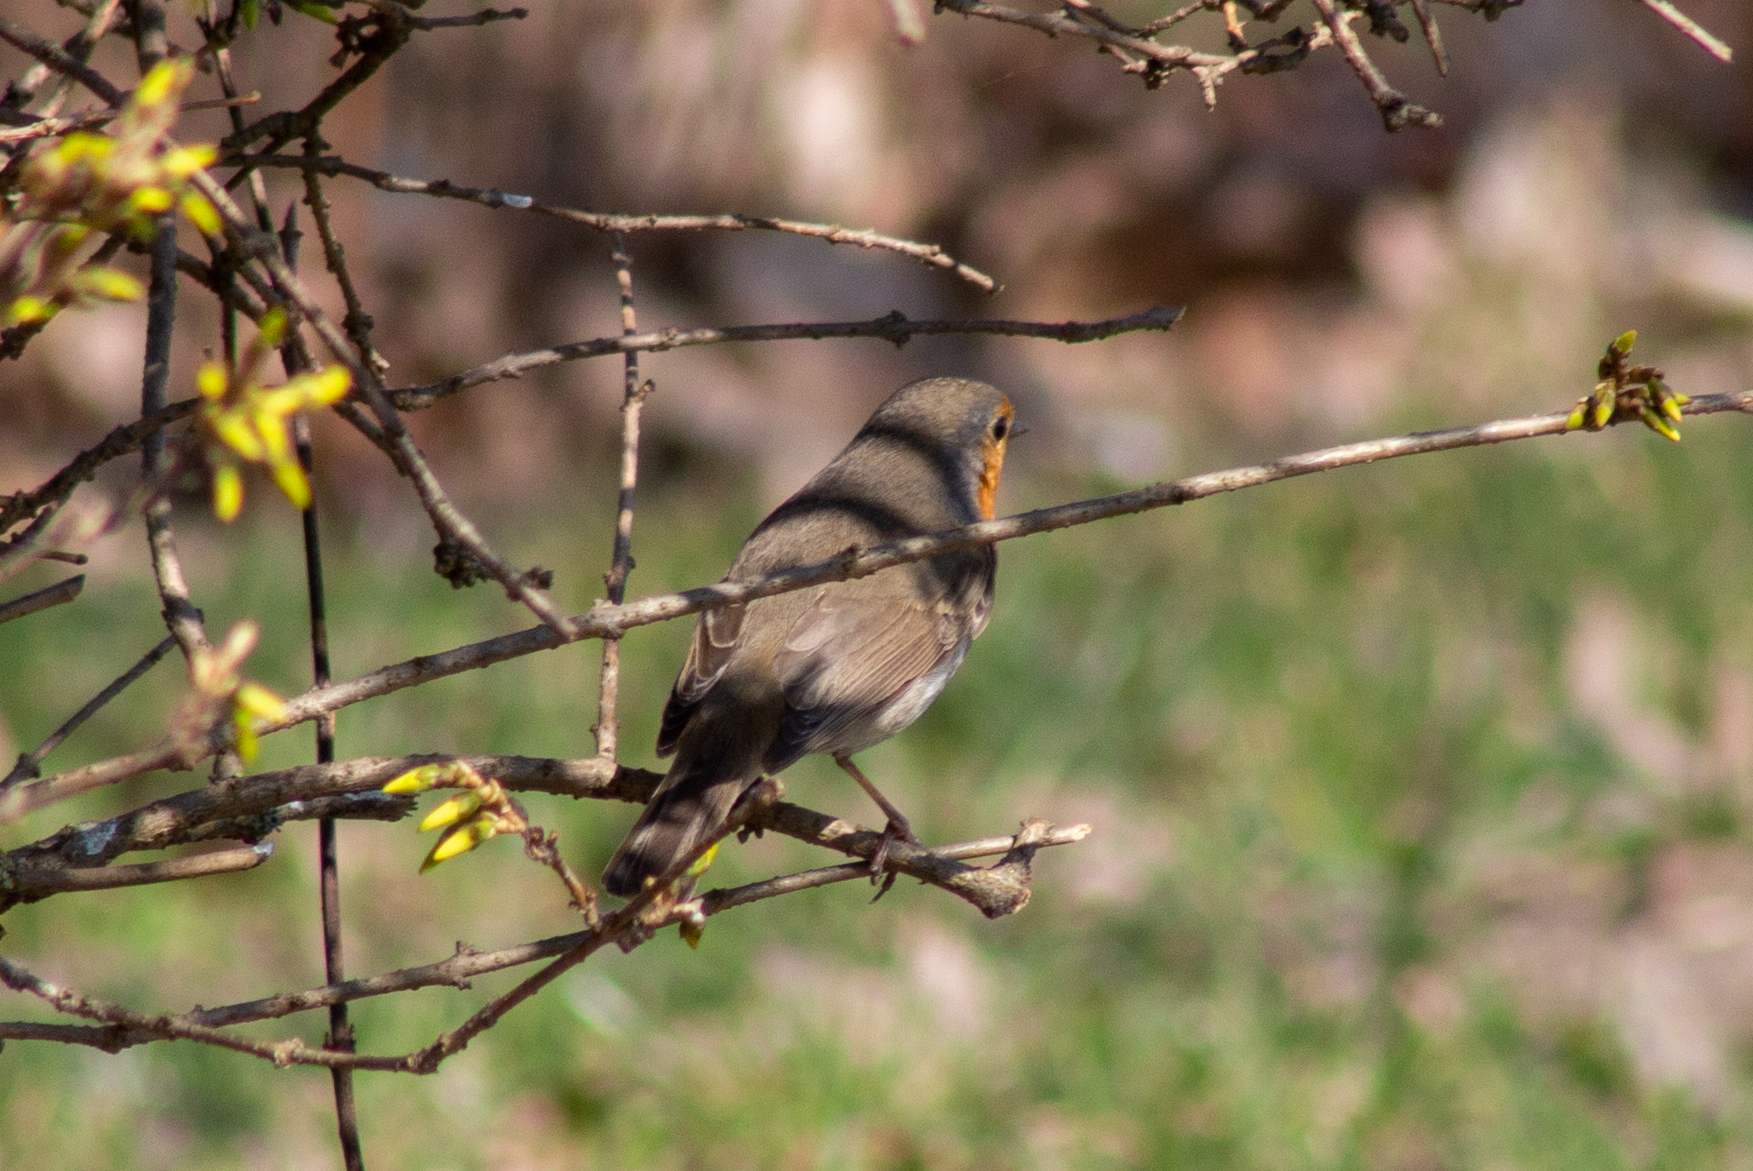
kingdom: Animalia
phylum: Chordata
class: Aves
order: Passeriformes
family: Muscicapidae
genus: Erithacus
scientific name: Erithacus rubecula
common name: European robin
